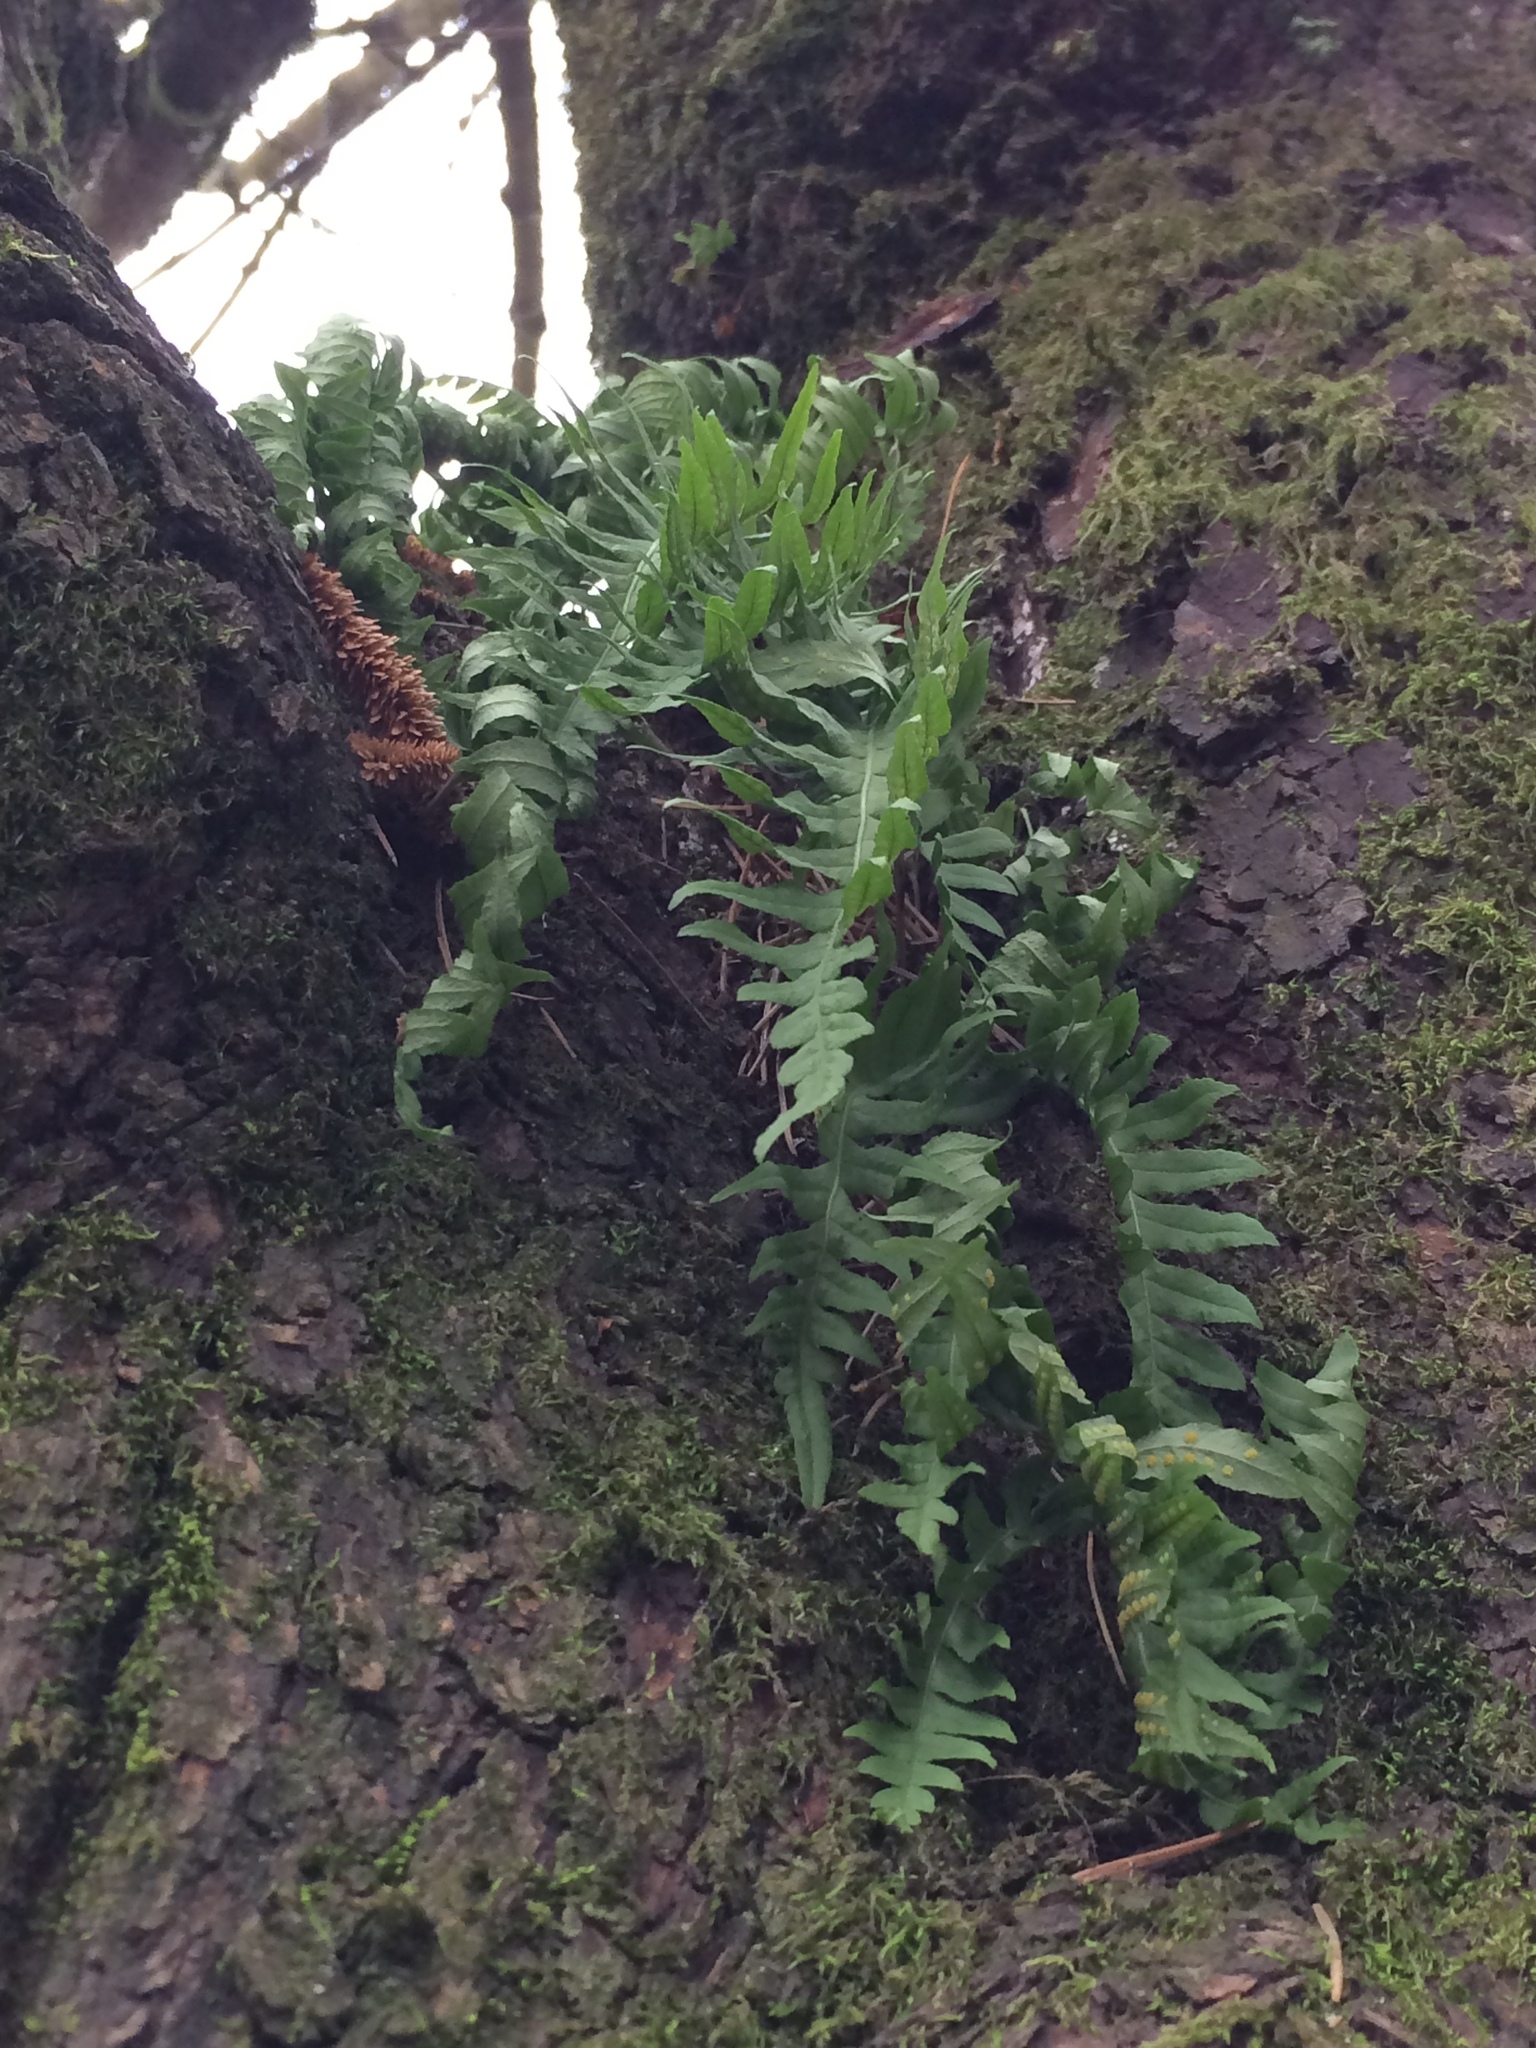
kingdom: Plantae
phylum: Tracheophyta
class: Polypodiopsida
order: Polypodiales
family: Polypodiaceae
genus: Polypodium
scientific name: Polypodium glycyrrhiza
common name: Licorice fern
